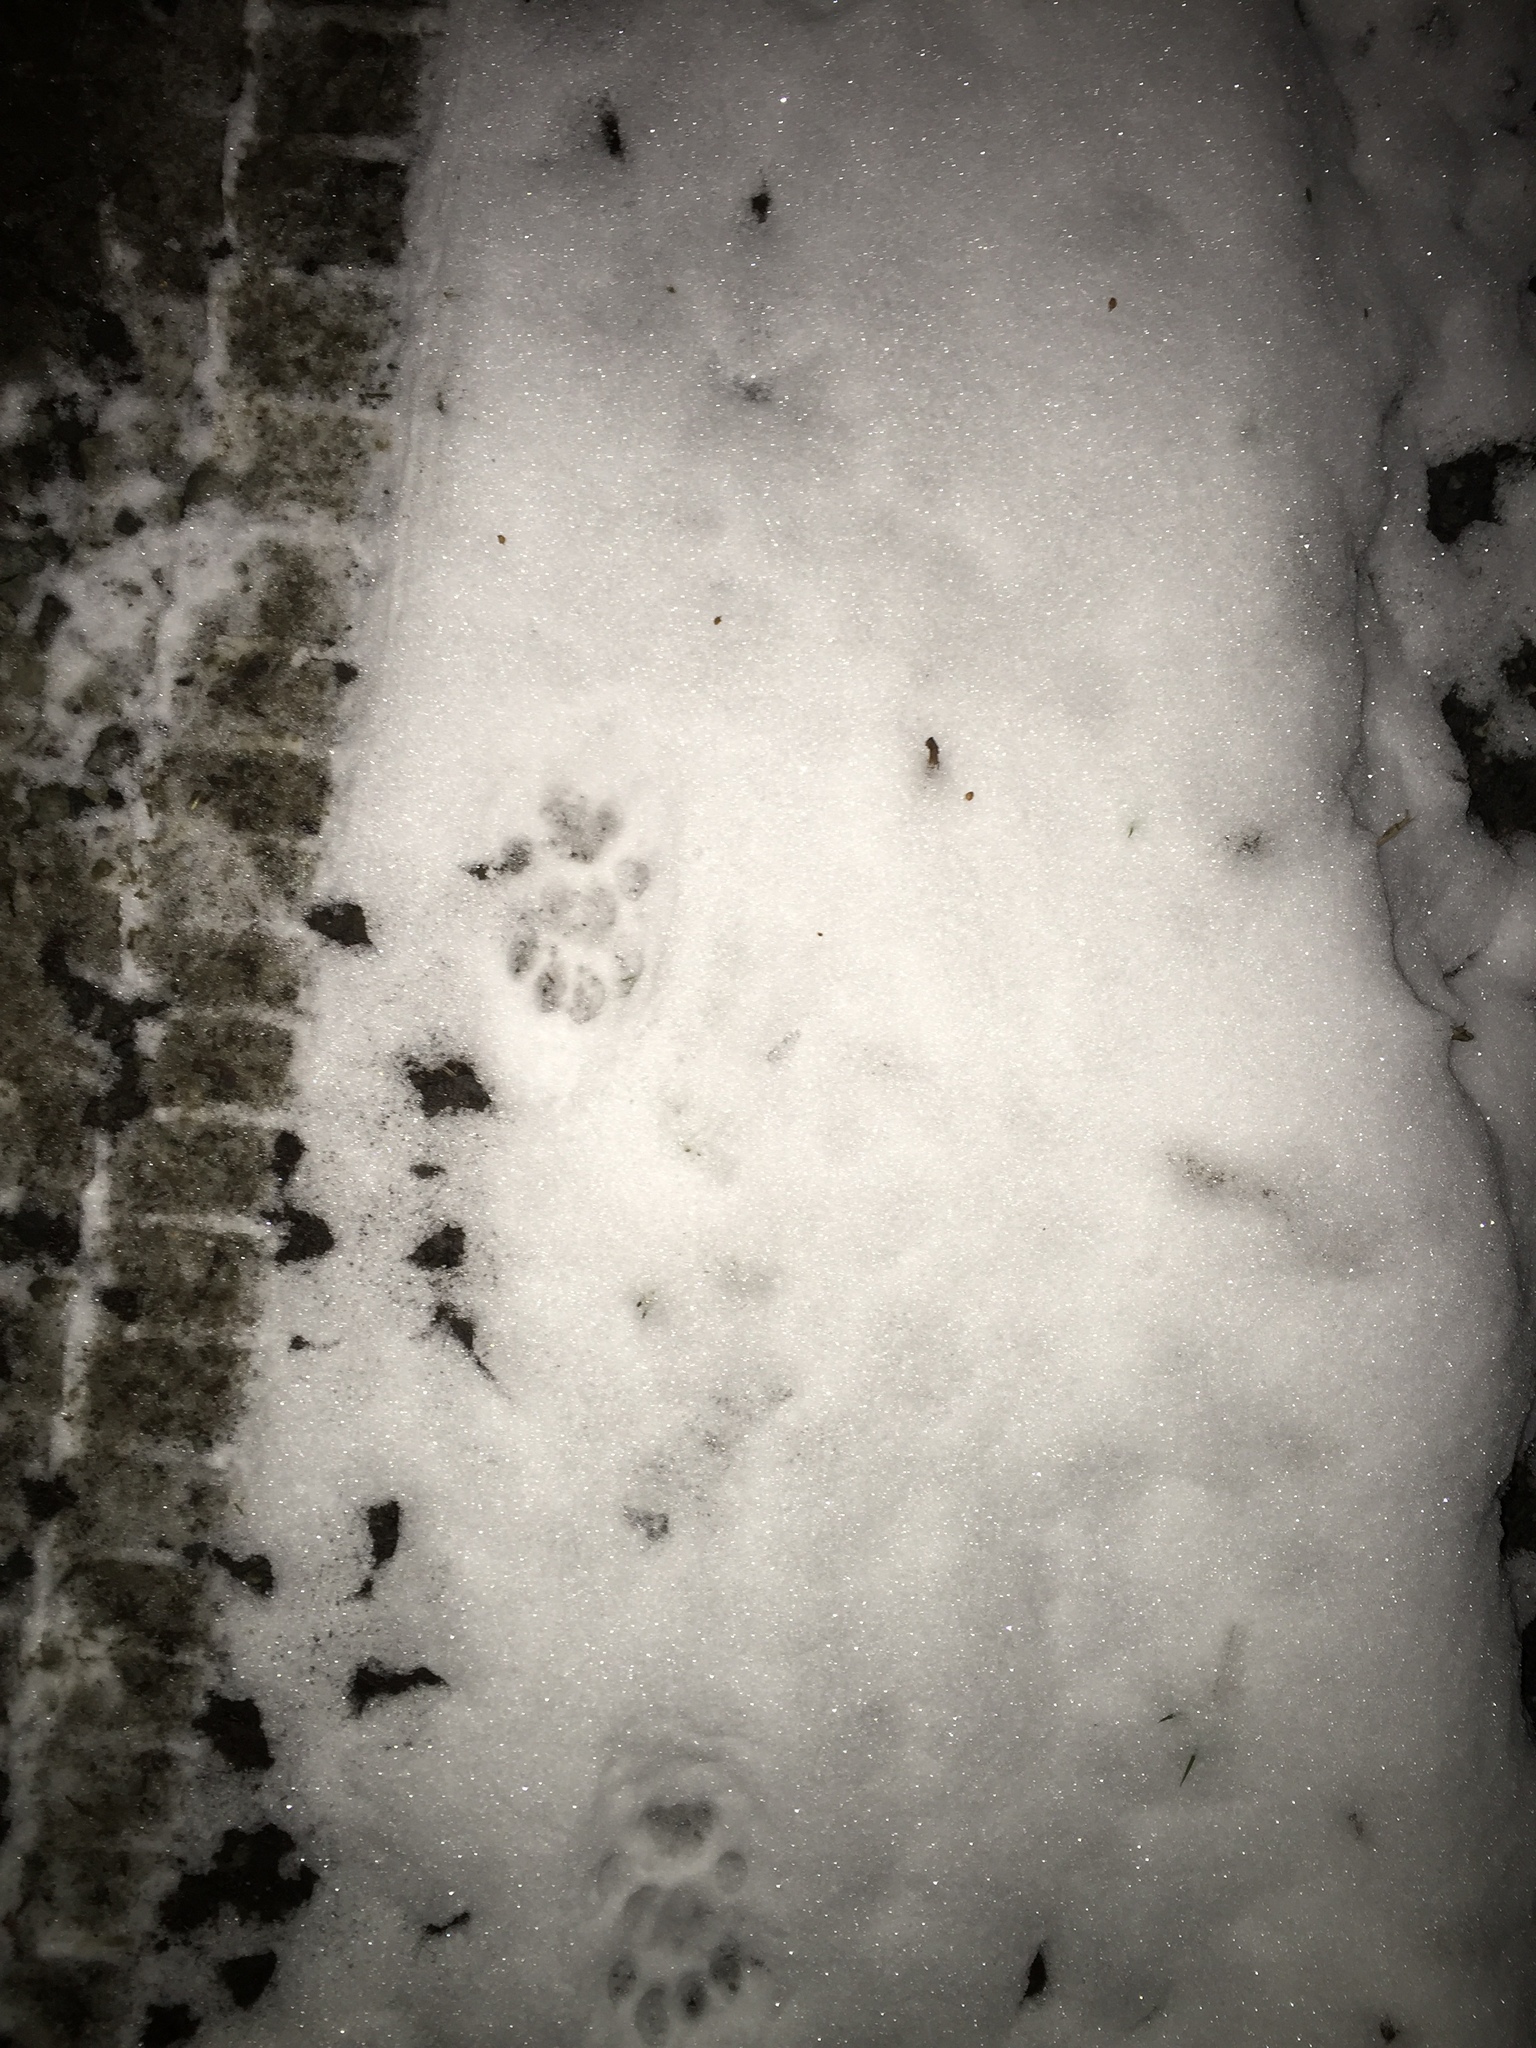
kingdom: Animalia
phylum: Chordata
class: Mammalia
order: Carnivora
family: Felidae
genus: Felis
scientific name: Felis catus
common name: Domestic cat
